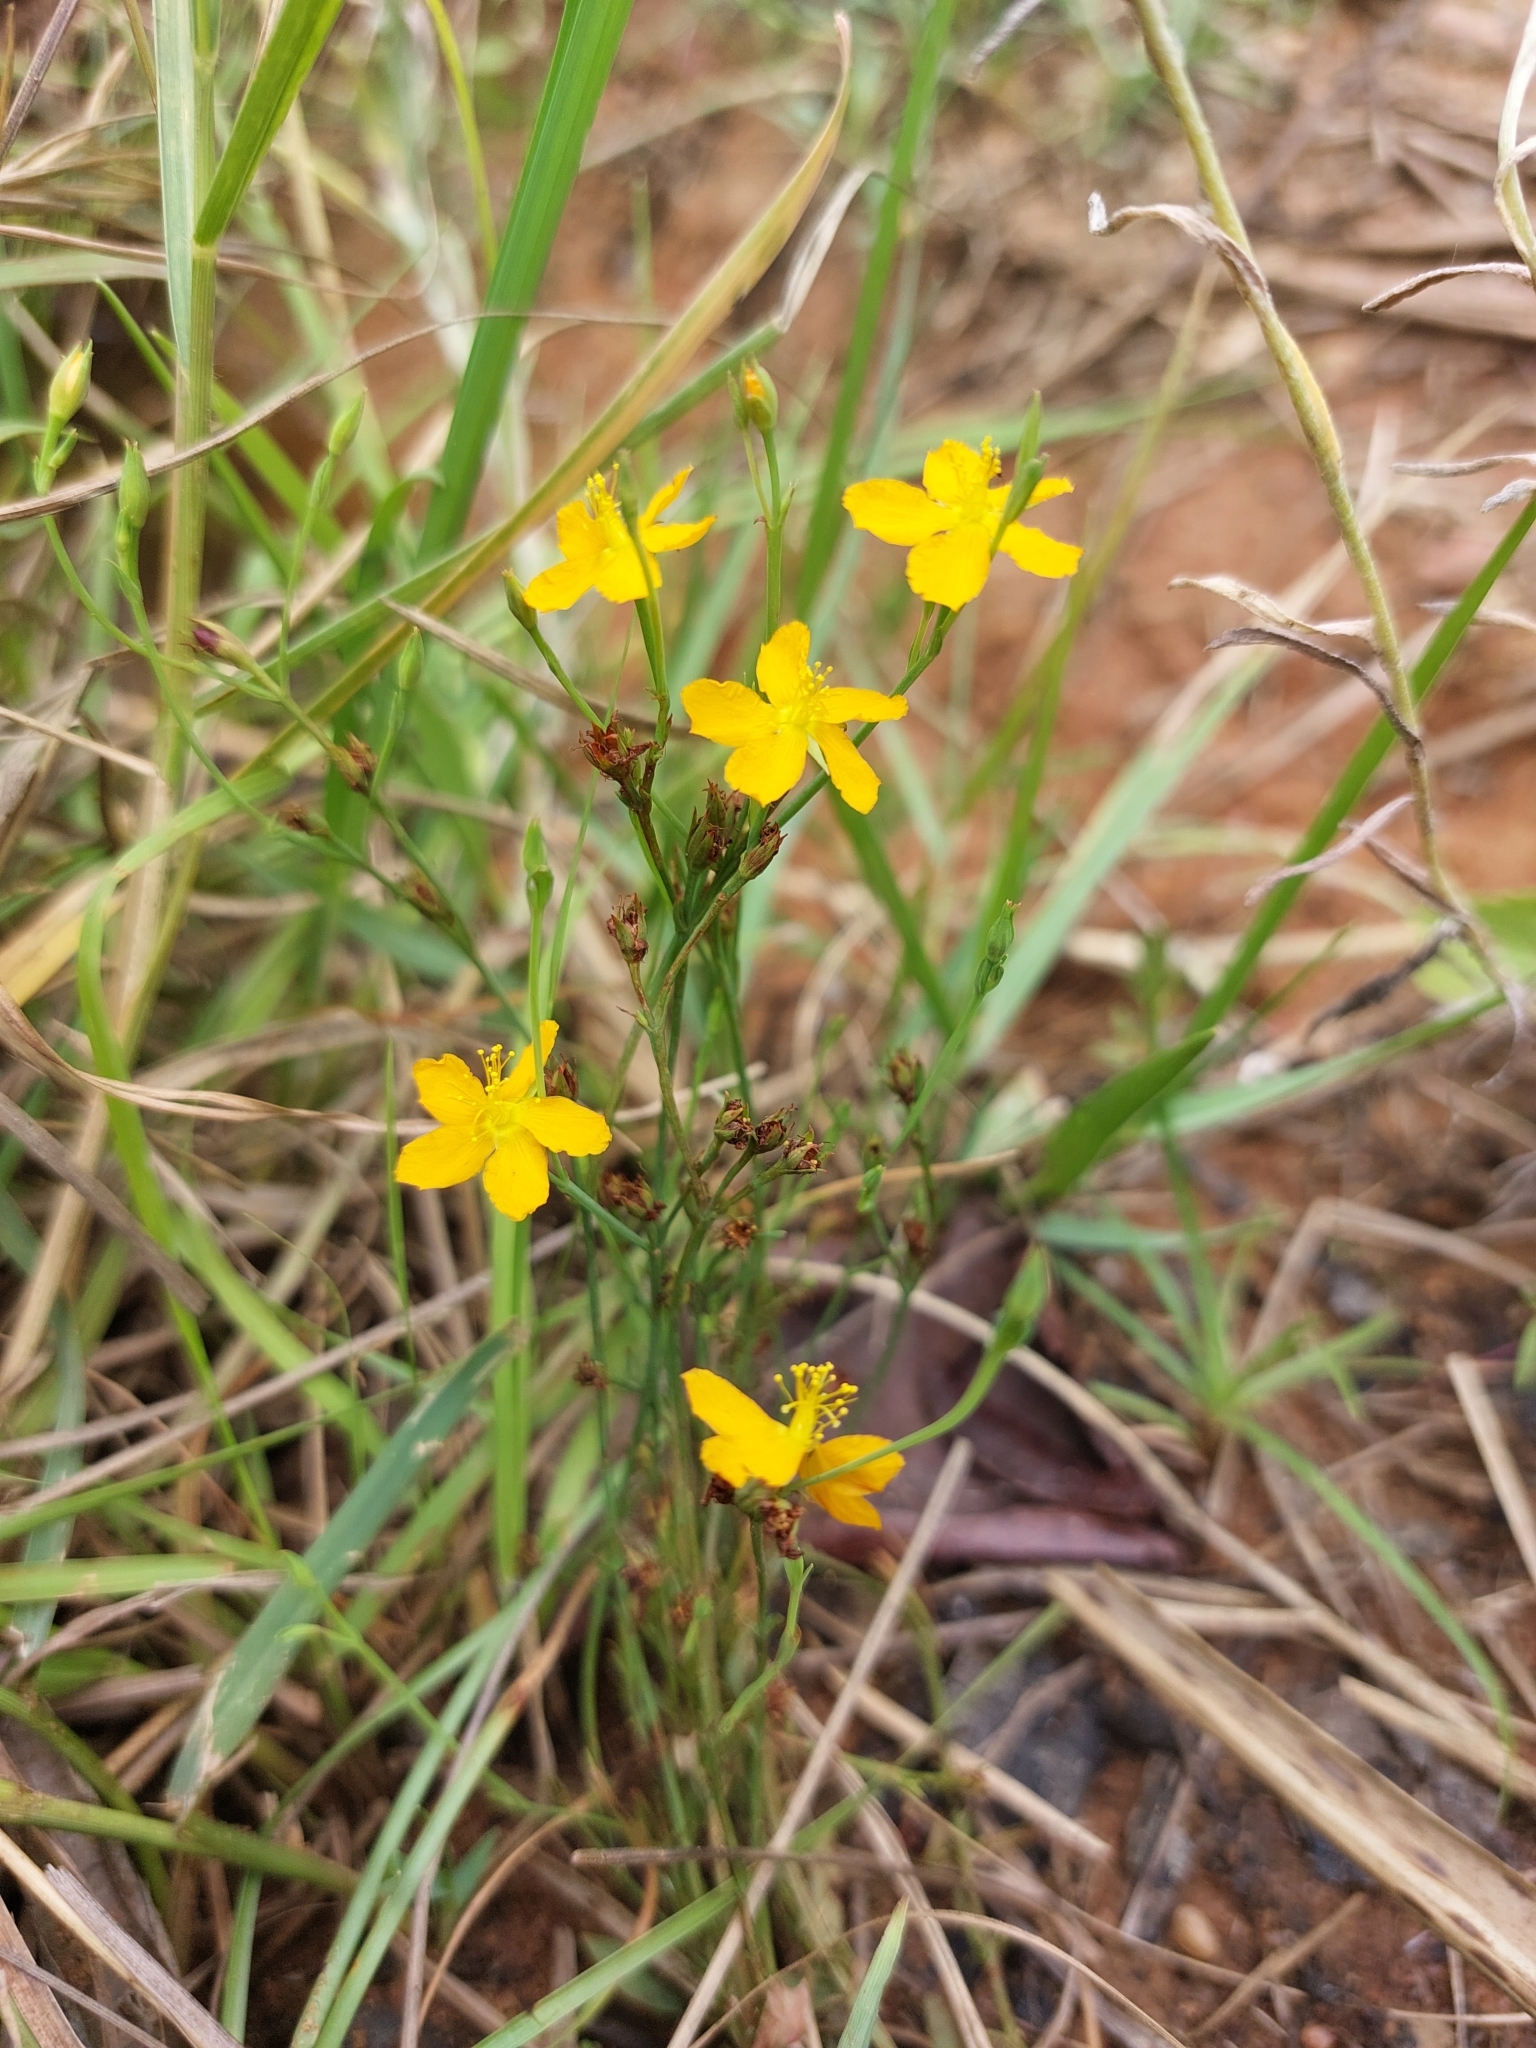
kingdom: Plantae
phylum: Tracheophyta
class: Magnoliopsida
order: Malpighiales
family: Hypericaceae
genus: Hypericum
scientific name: Hypericum lalandii
